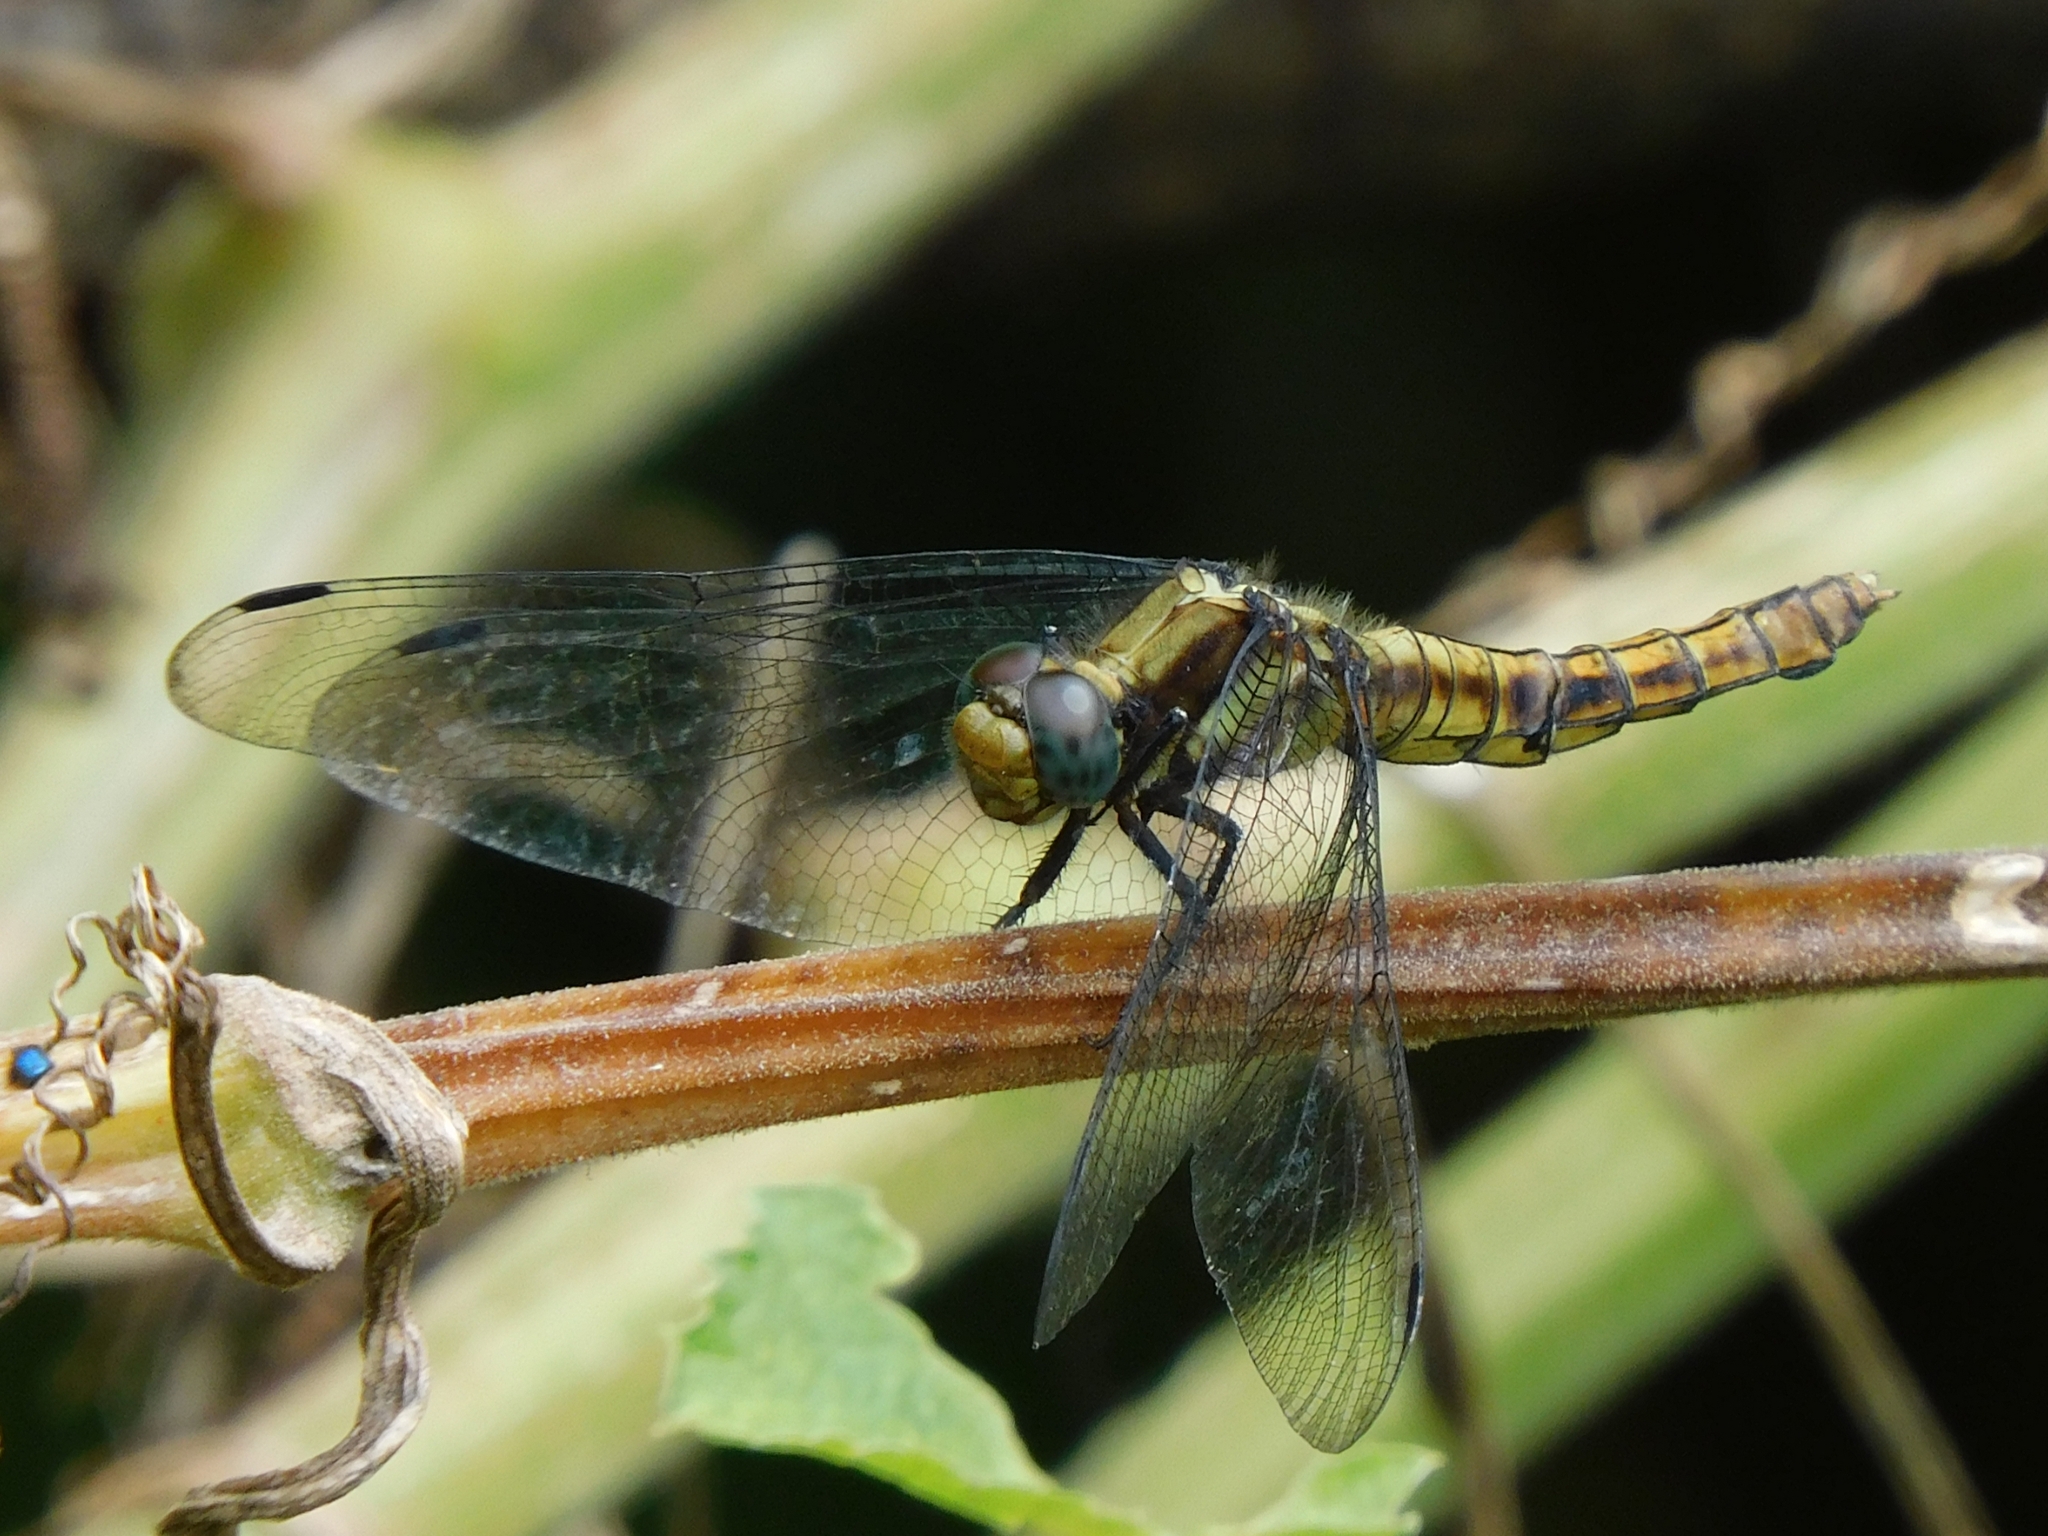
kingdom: Animalia
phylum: Arthropoda
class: Insecta
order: Odonata
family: Libellulidae
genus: Orthetrum
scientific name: Orthetrum internum
